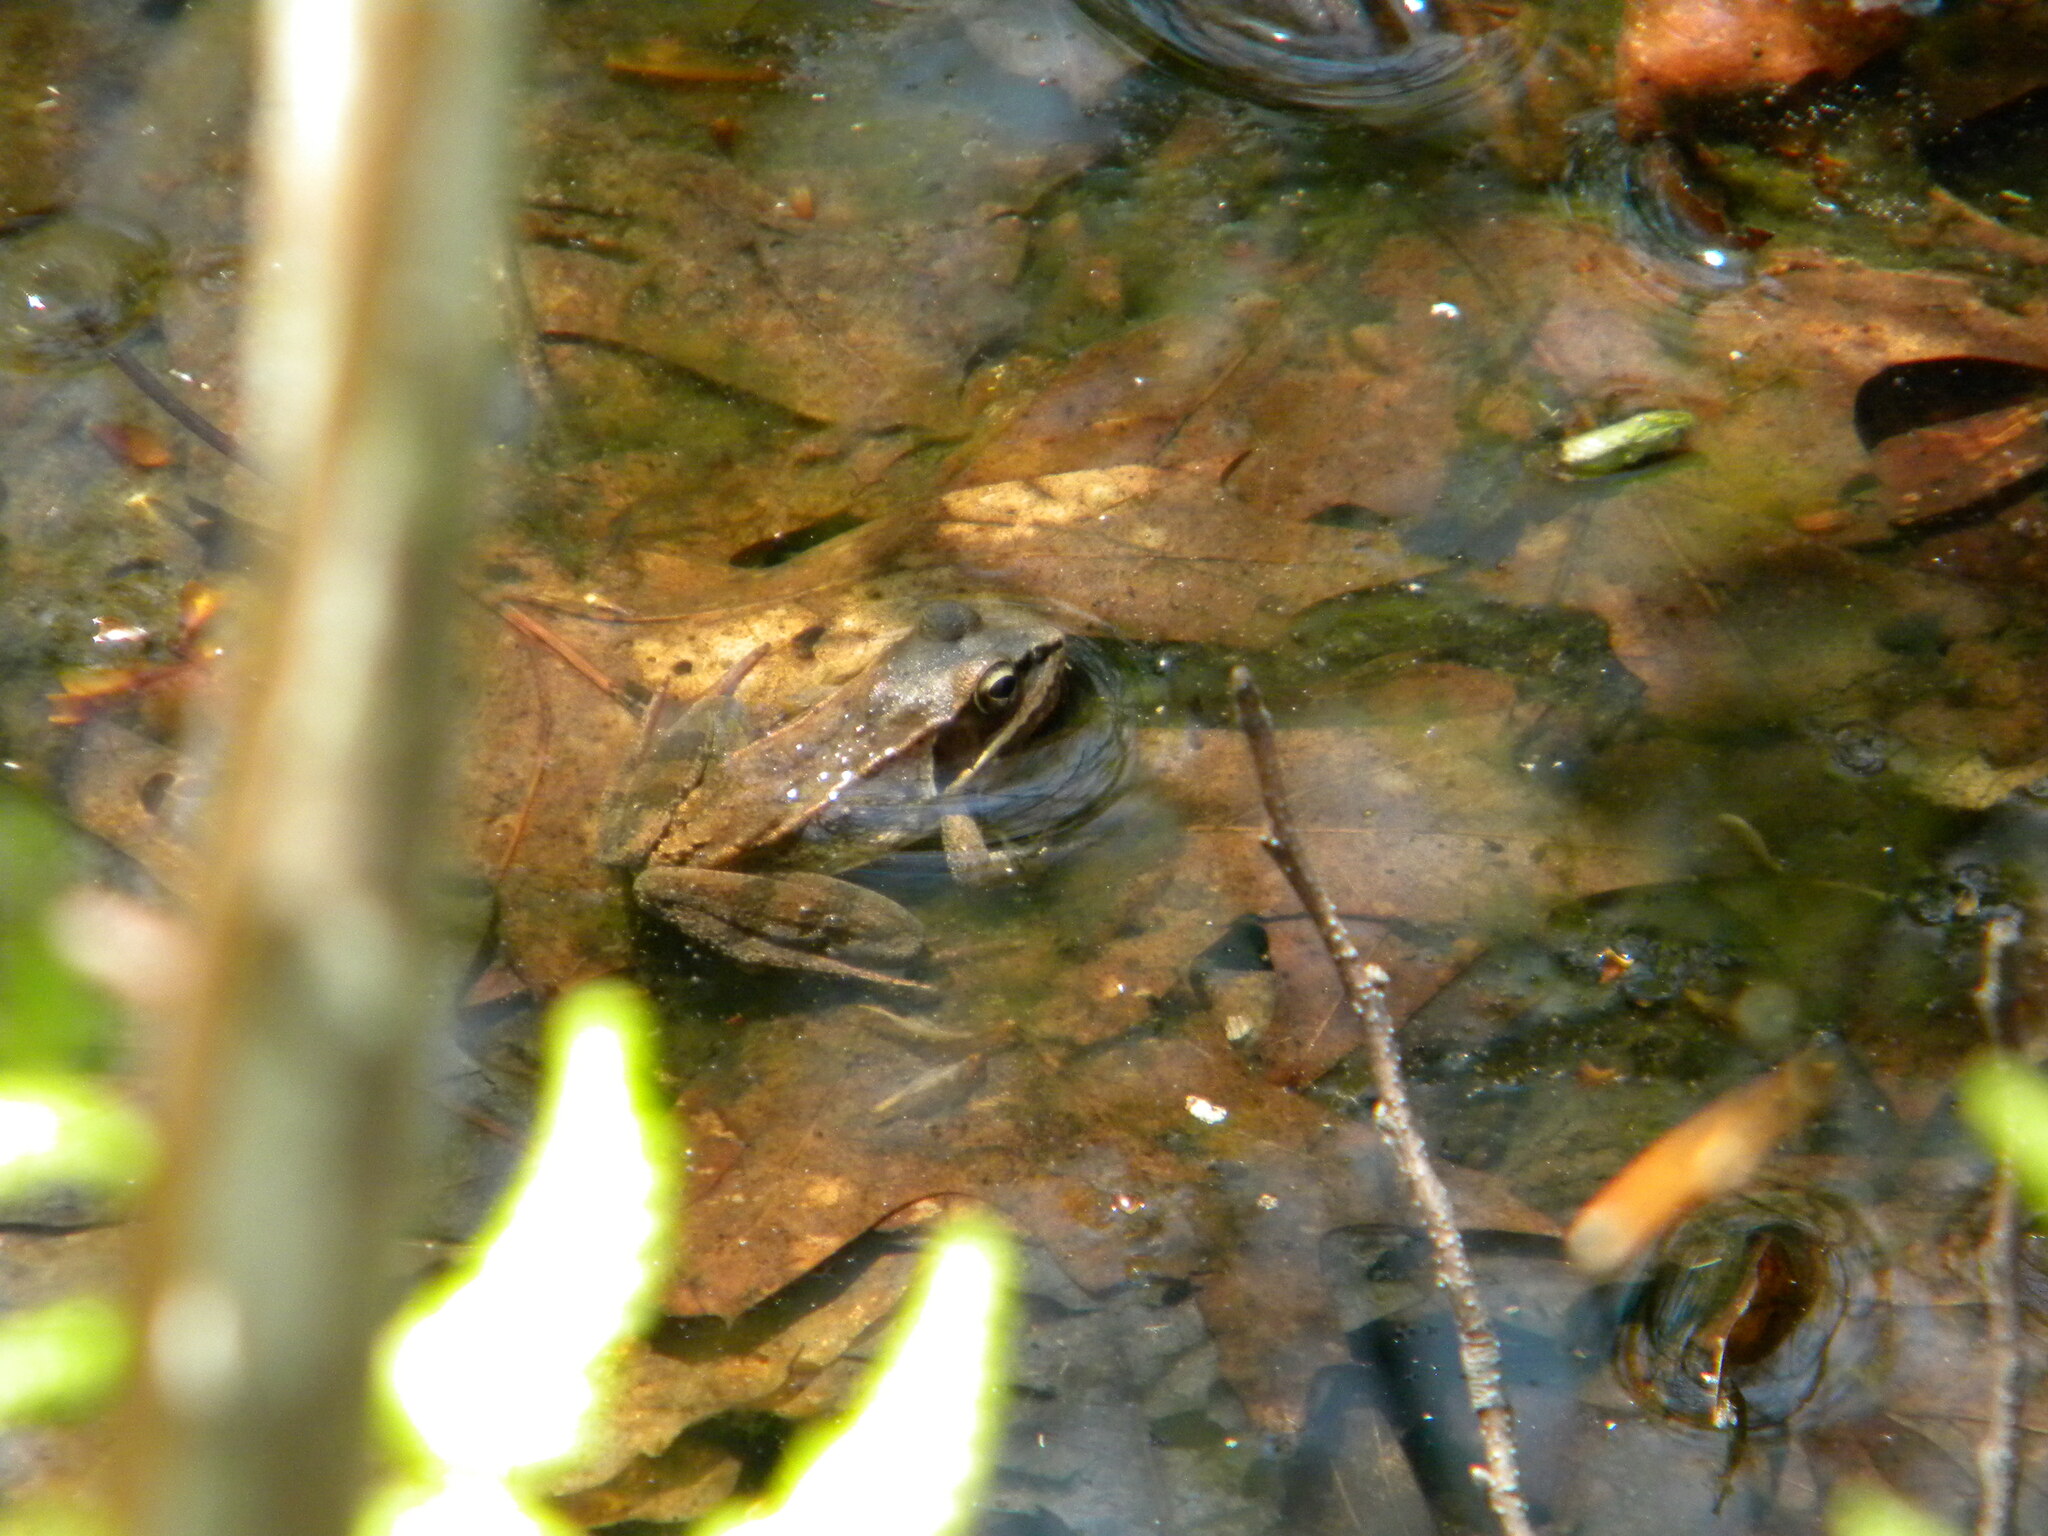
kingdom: Animalia
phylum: Chordata
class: Amphibia
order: Anura
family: Ranidae
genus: Lithobates
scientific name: Lithobates sylvaticus
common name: Wood frog
